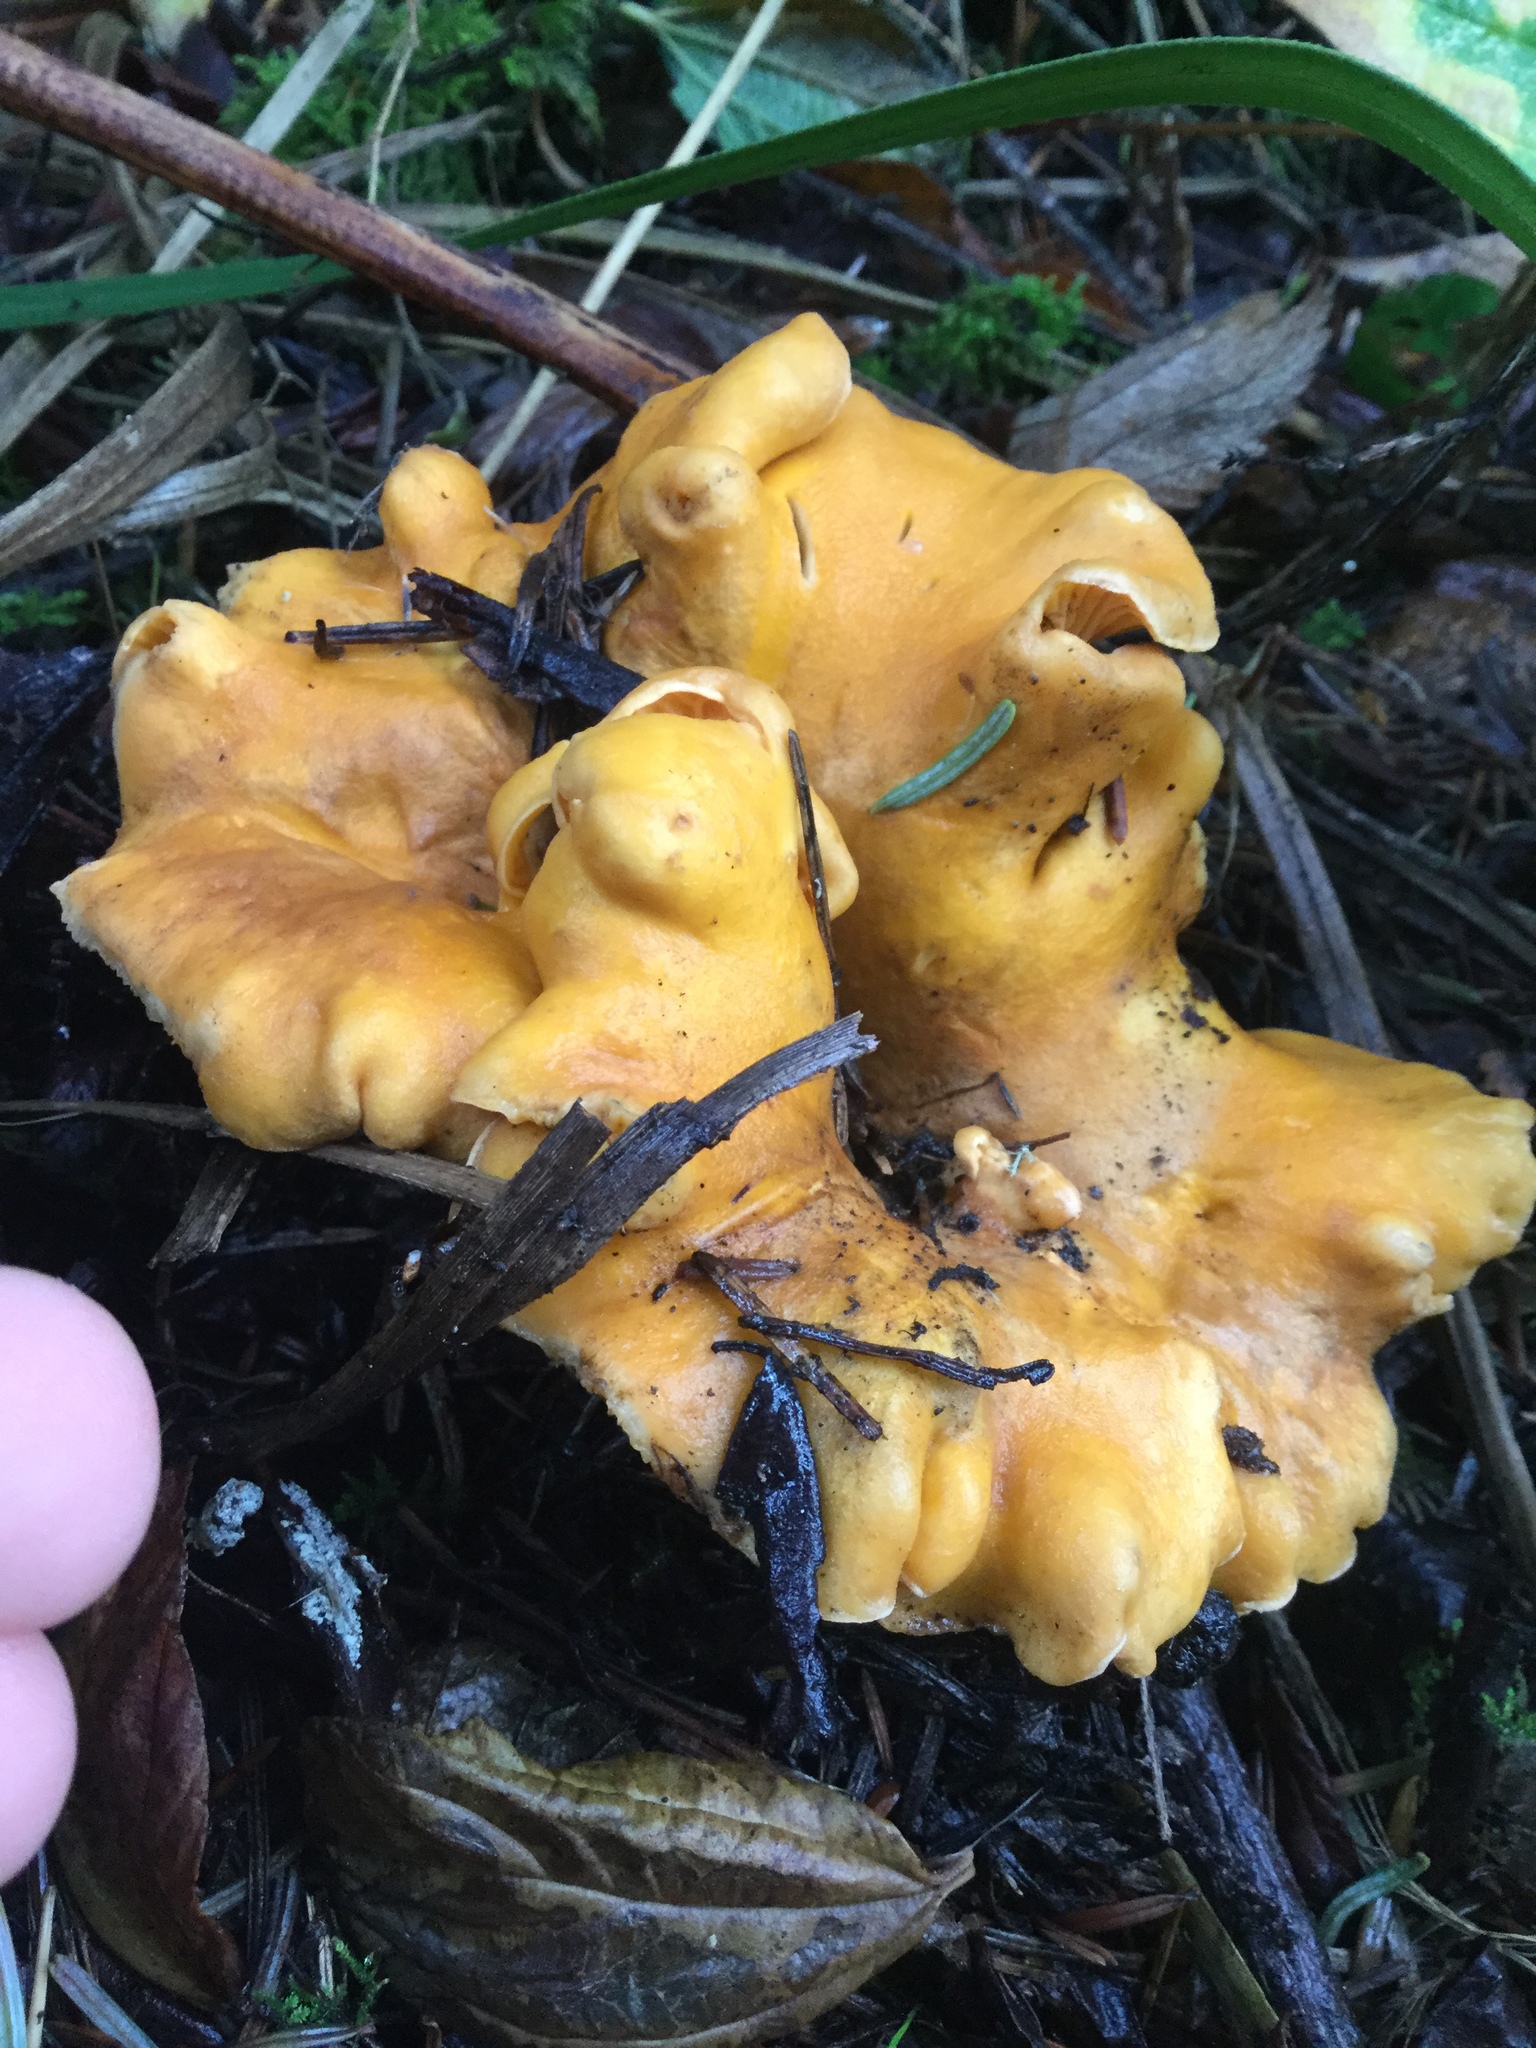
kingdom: Fungi
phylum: Basidiomycota
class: Agaricomycetes
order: Cantharellales
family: Hydnaceae
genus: Cantharellus
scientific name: Cantharellus formosus
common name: Pacific golden chanterelle
